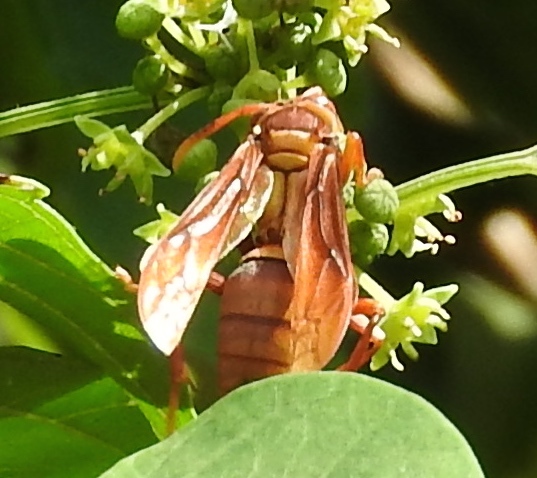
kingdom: Animalia
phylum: Arthropoda
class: Insecta
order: Hymenoptera
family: Eumenidae
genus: Polistes
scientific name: Polistes carnifex
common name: Paper wasp
